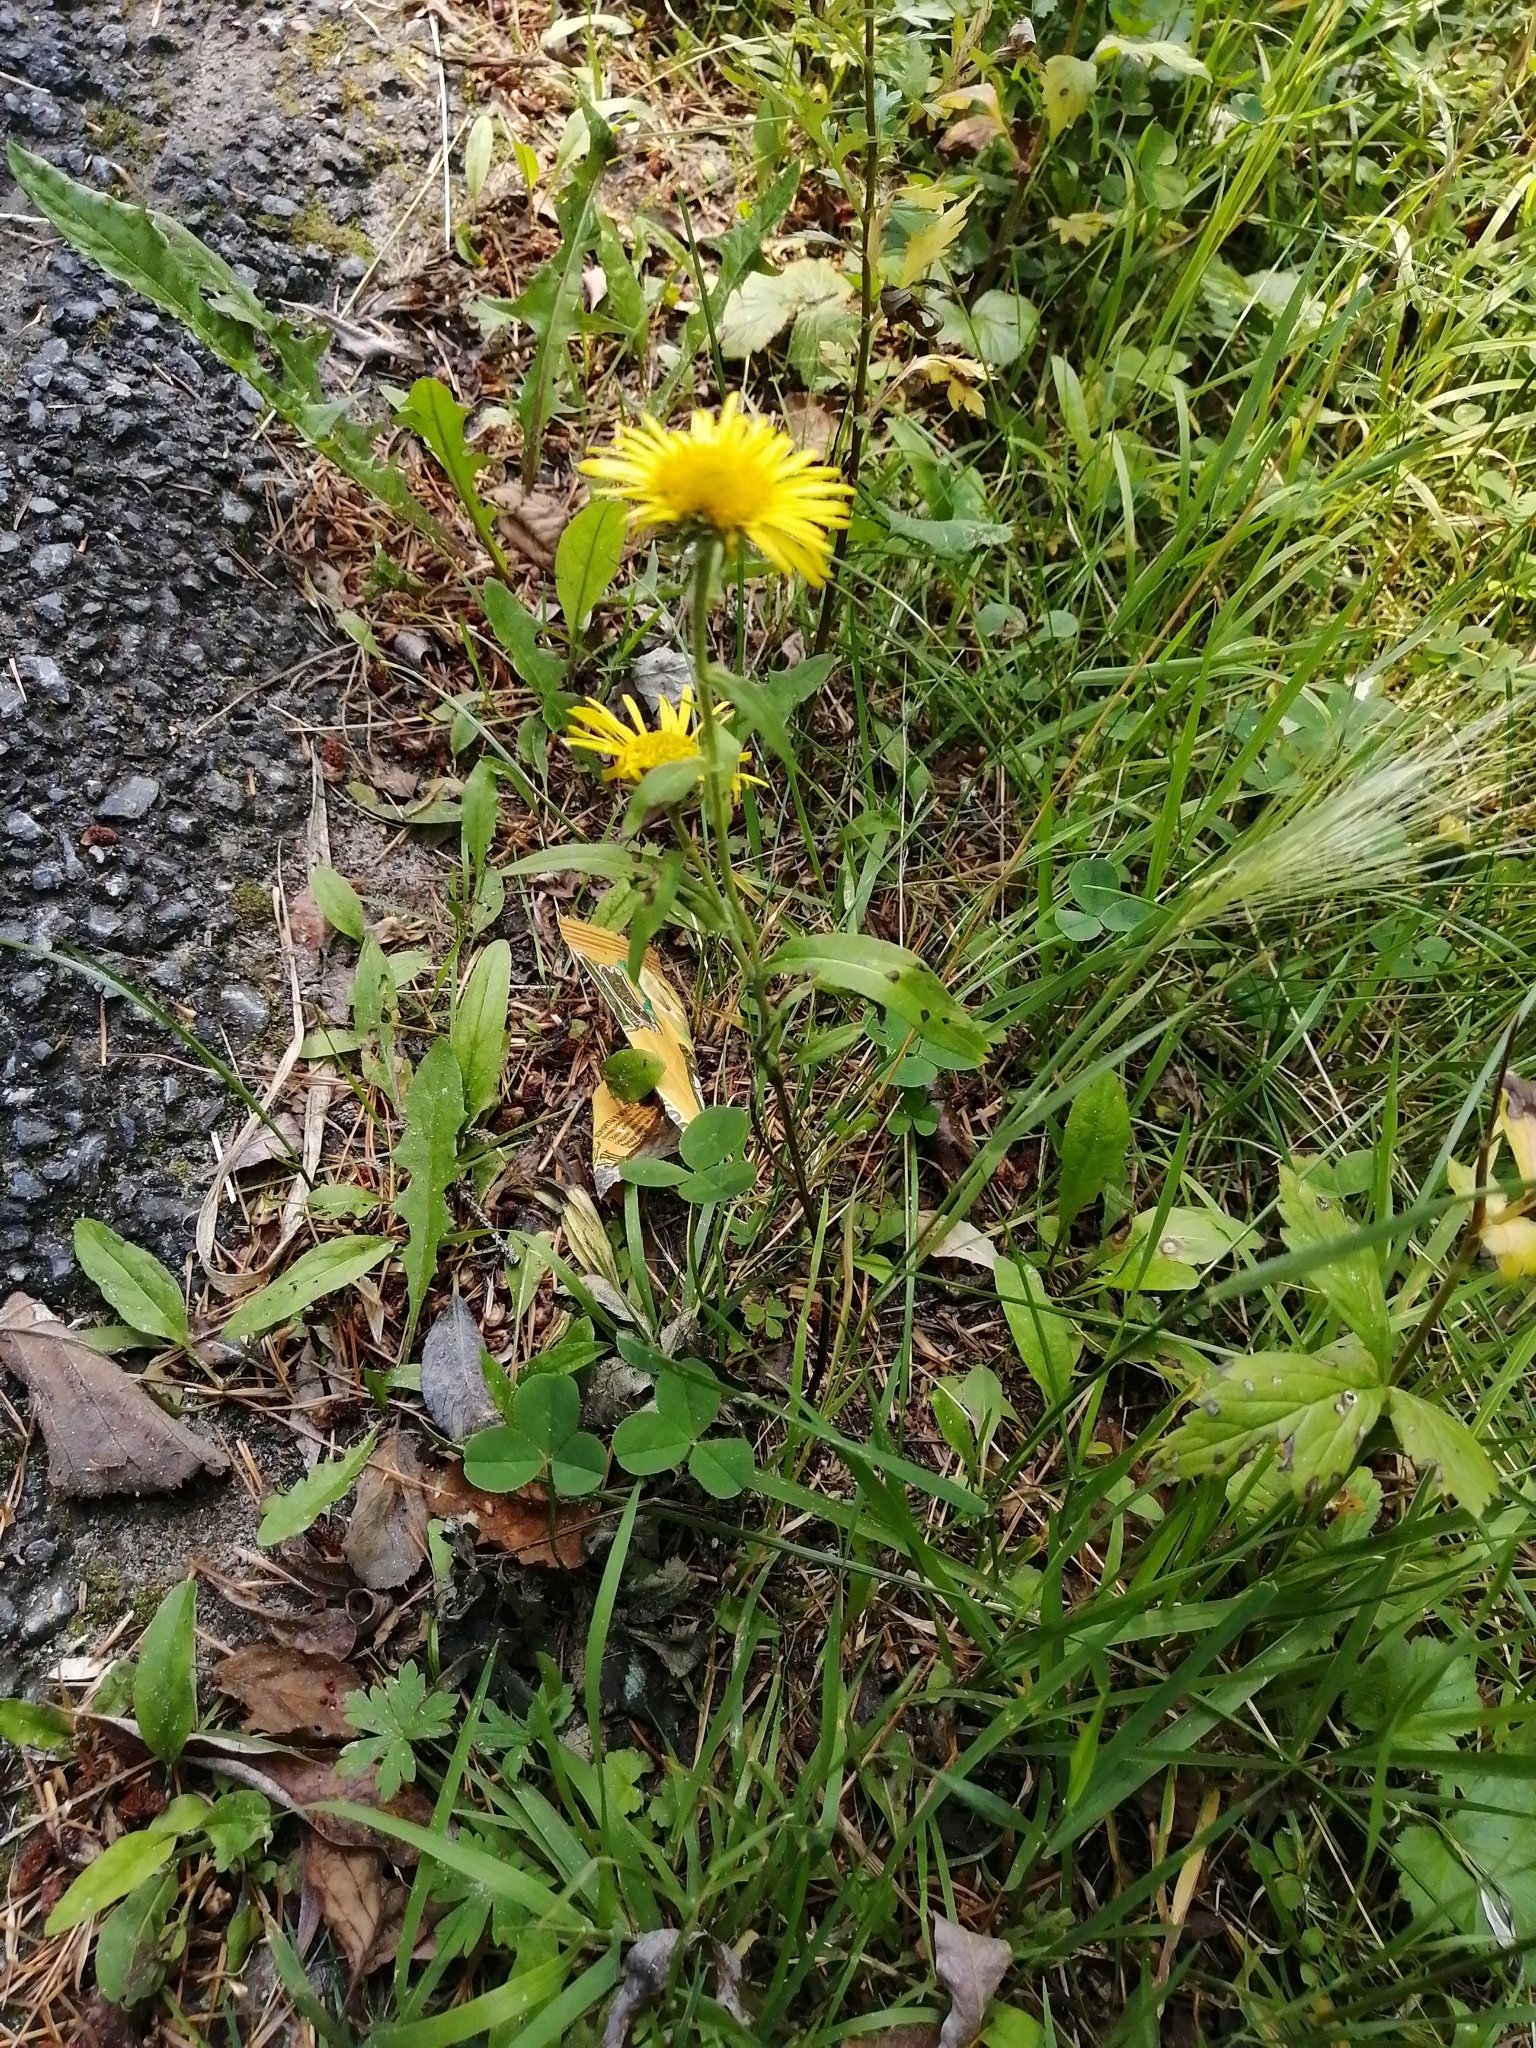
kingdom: Plantae
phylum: Tracheophyta
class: Magnoliopsida
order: Asterales
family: Asteraceae
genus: Pentanema
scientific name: Pentanema britannicum
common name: British elecampane
